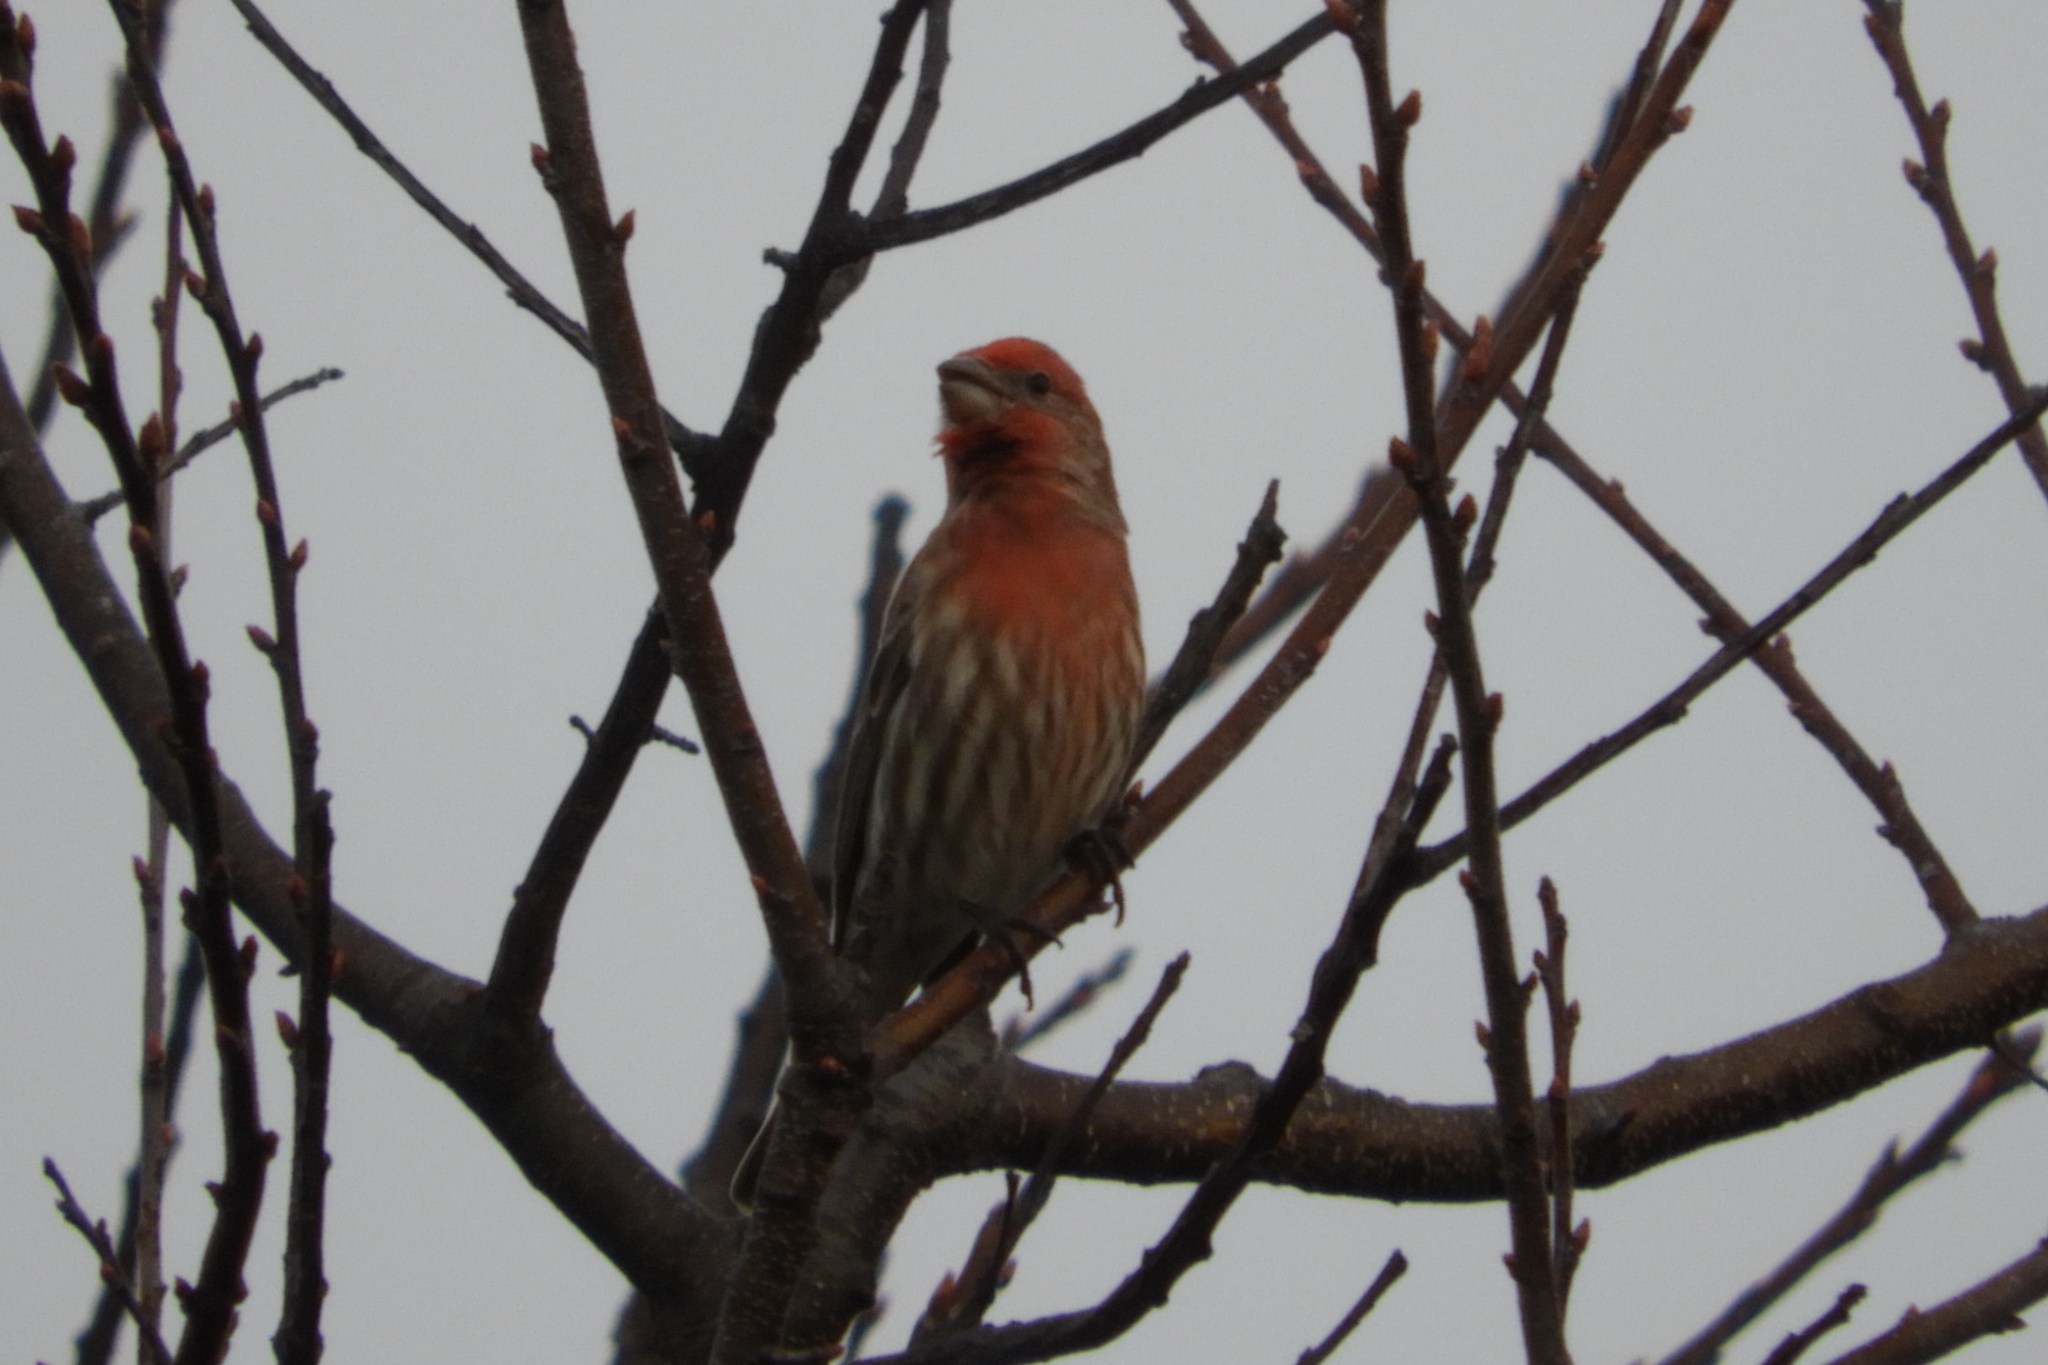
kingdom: Animalia
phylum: Chordata
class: Aves
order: Passeriformes
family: Fringillidae
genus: Haemorhous
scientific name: Haemorhous mexicanus
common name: House finch
